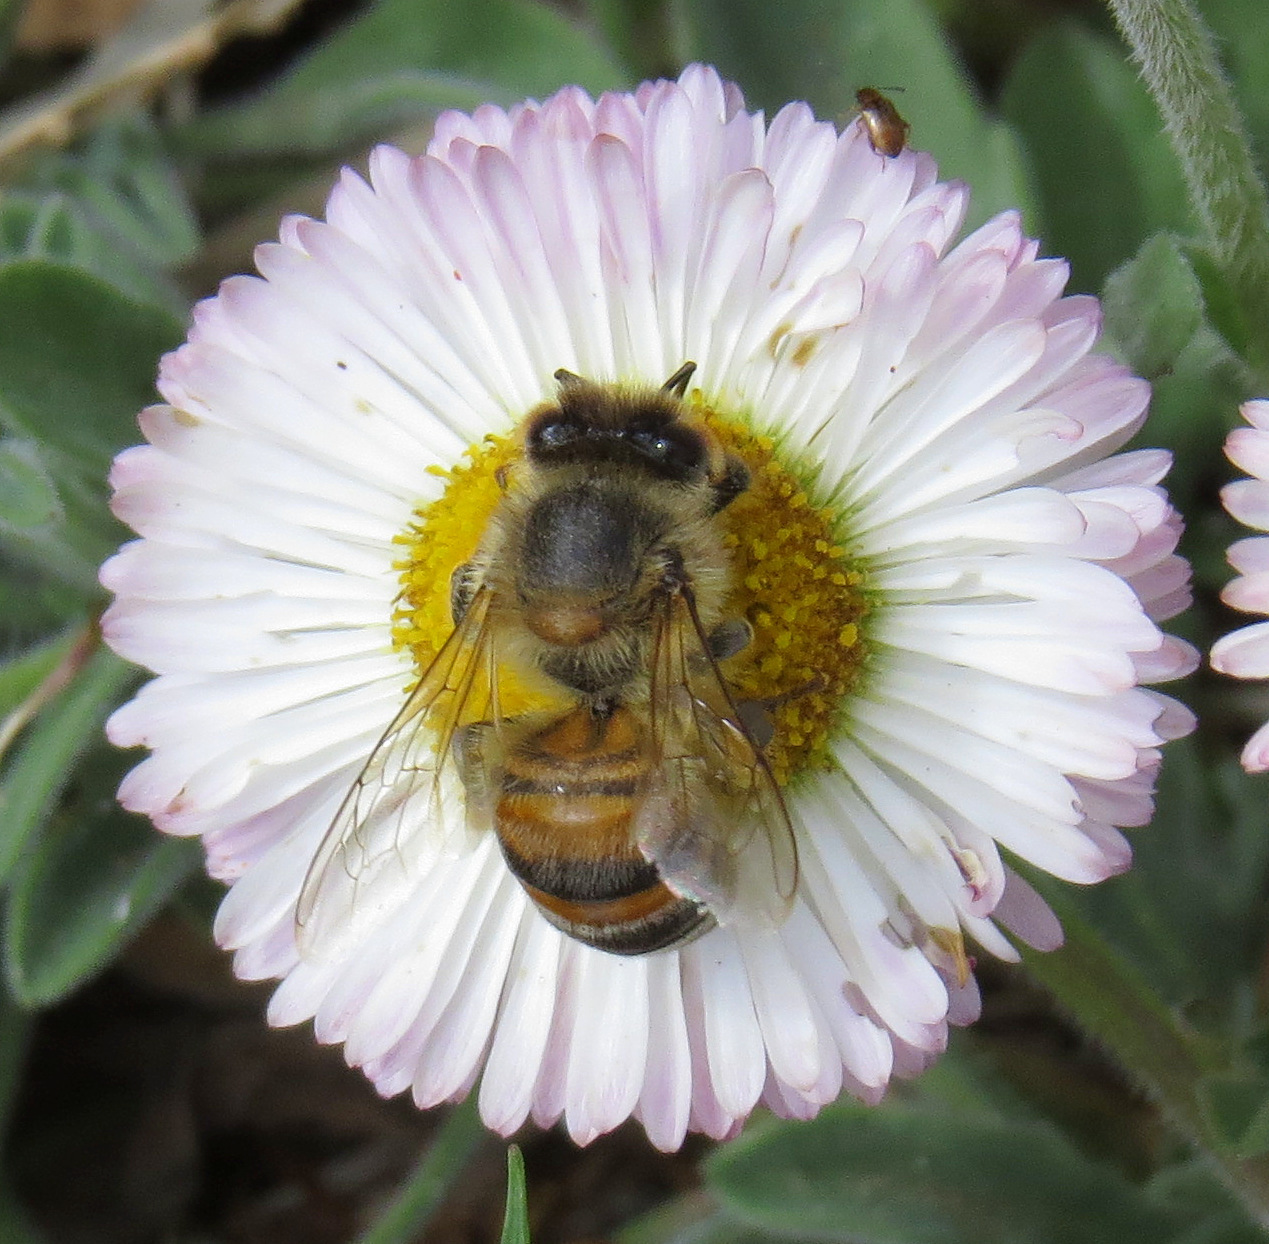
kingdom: Animalia
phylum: Arthropoda
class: Insecta
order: Hymenoptera
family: Apidae
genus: Apis
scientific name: Apis mellifera
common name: Honey bee
